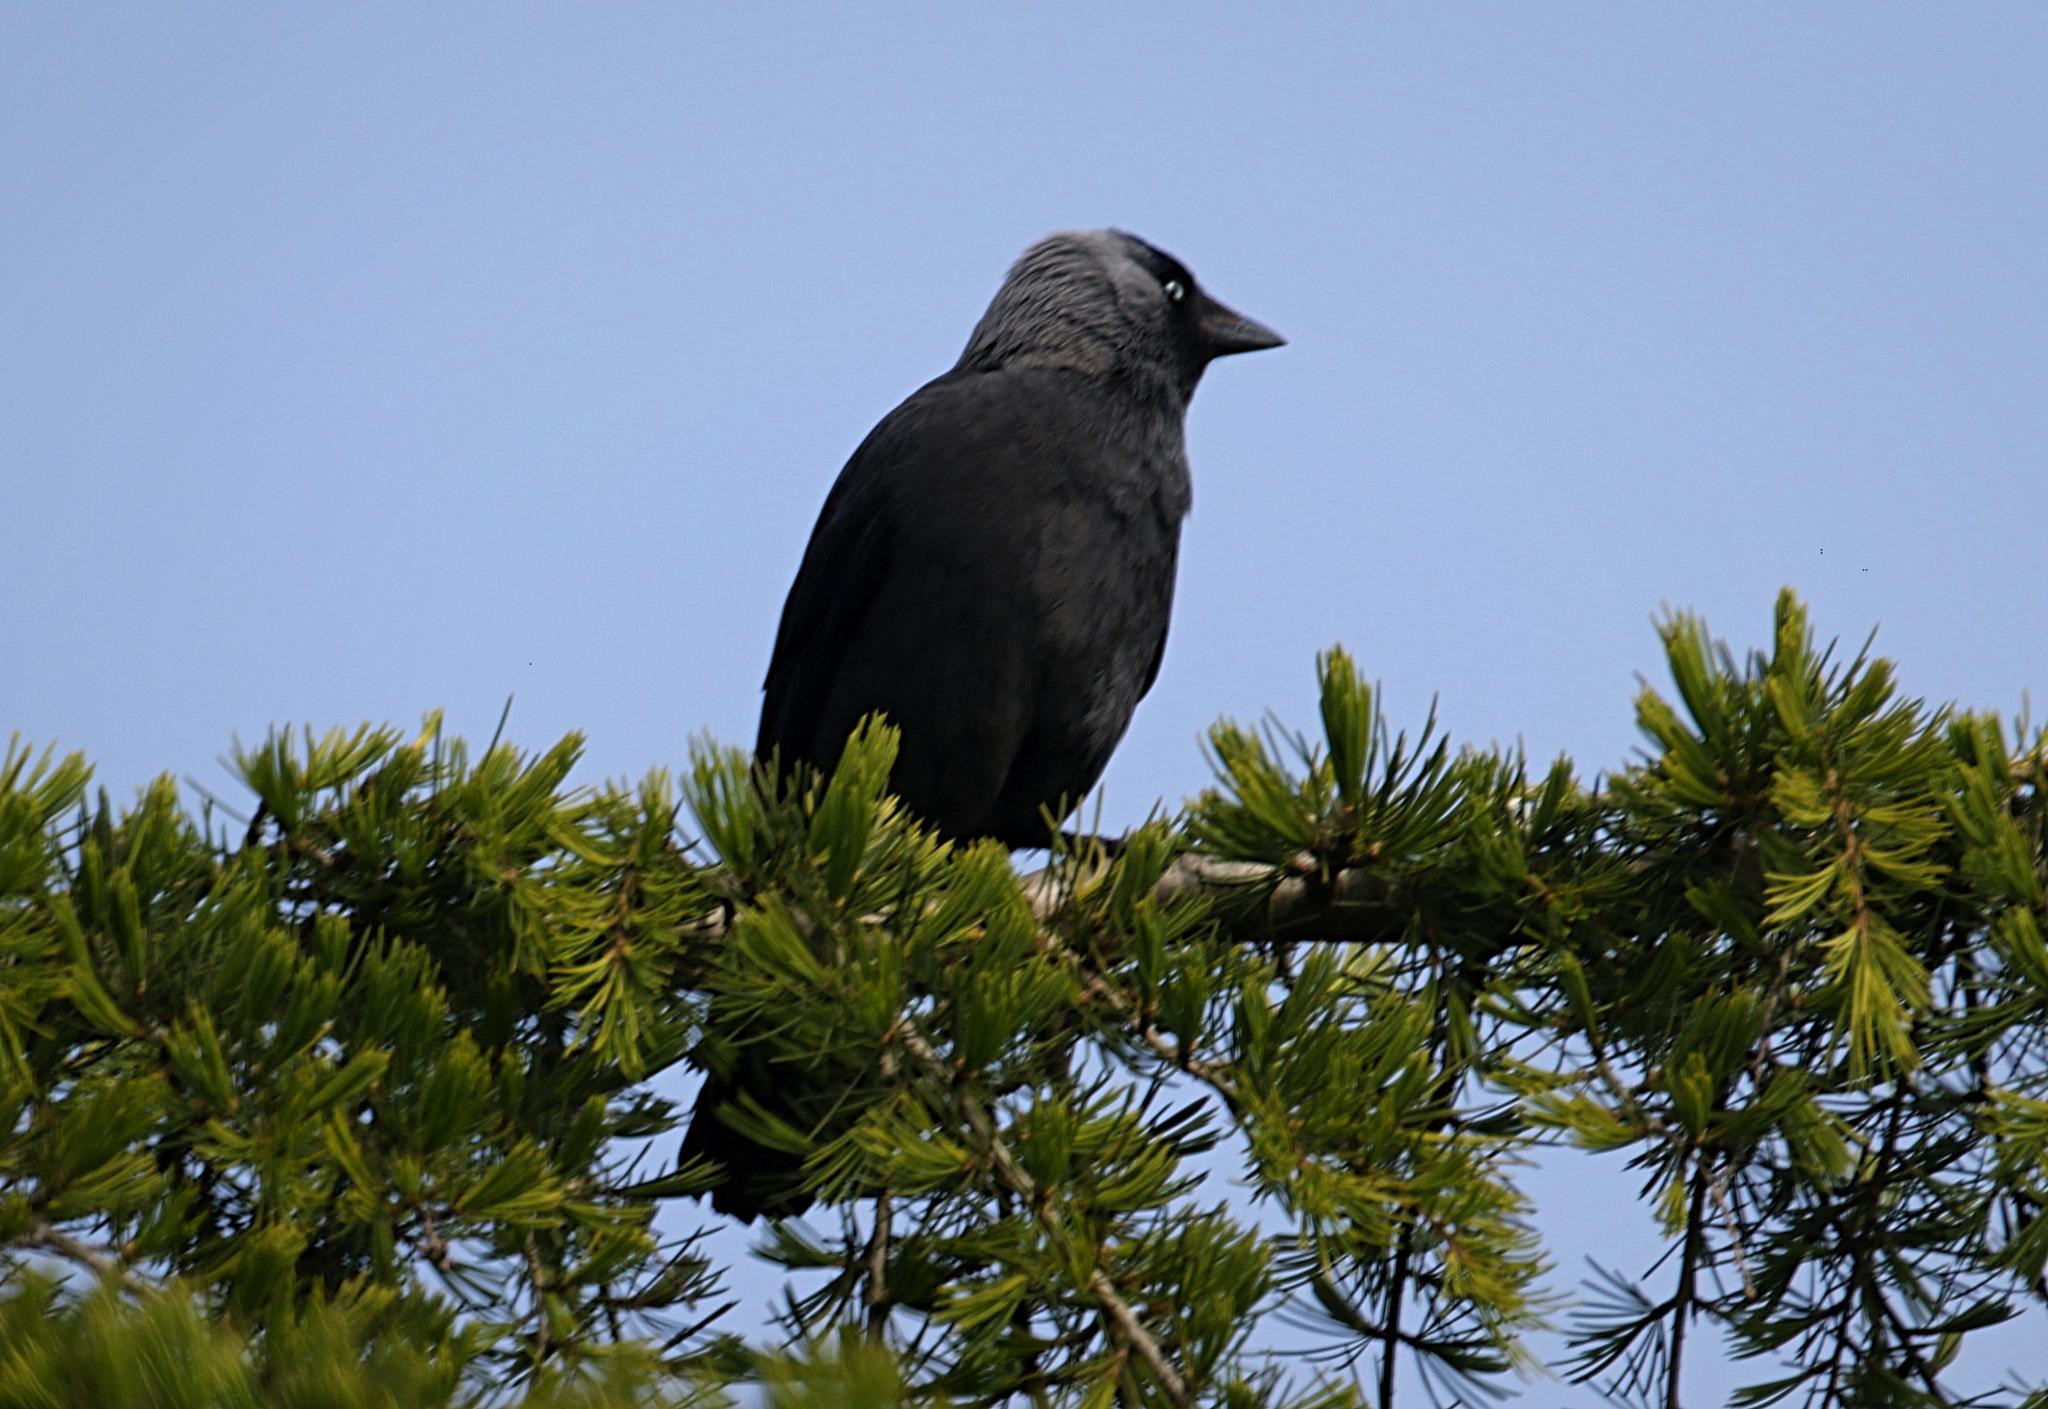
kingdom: Animalia
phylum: Chordata
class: Aves
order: Passeriformes
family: Corvidae
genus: Coloeus
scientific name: Coloeus monedula
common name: Western jackdaw
